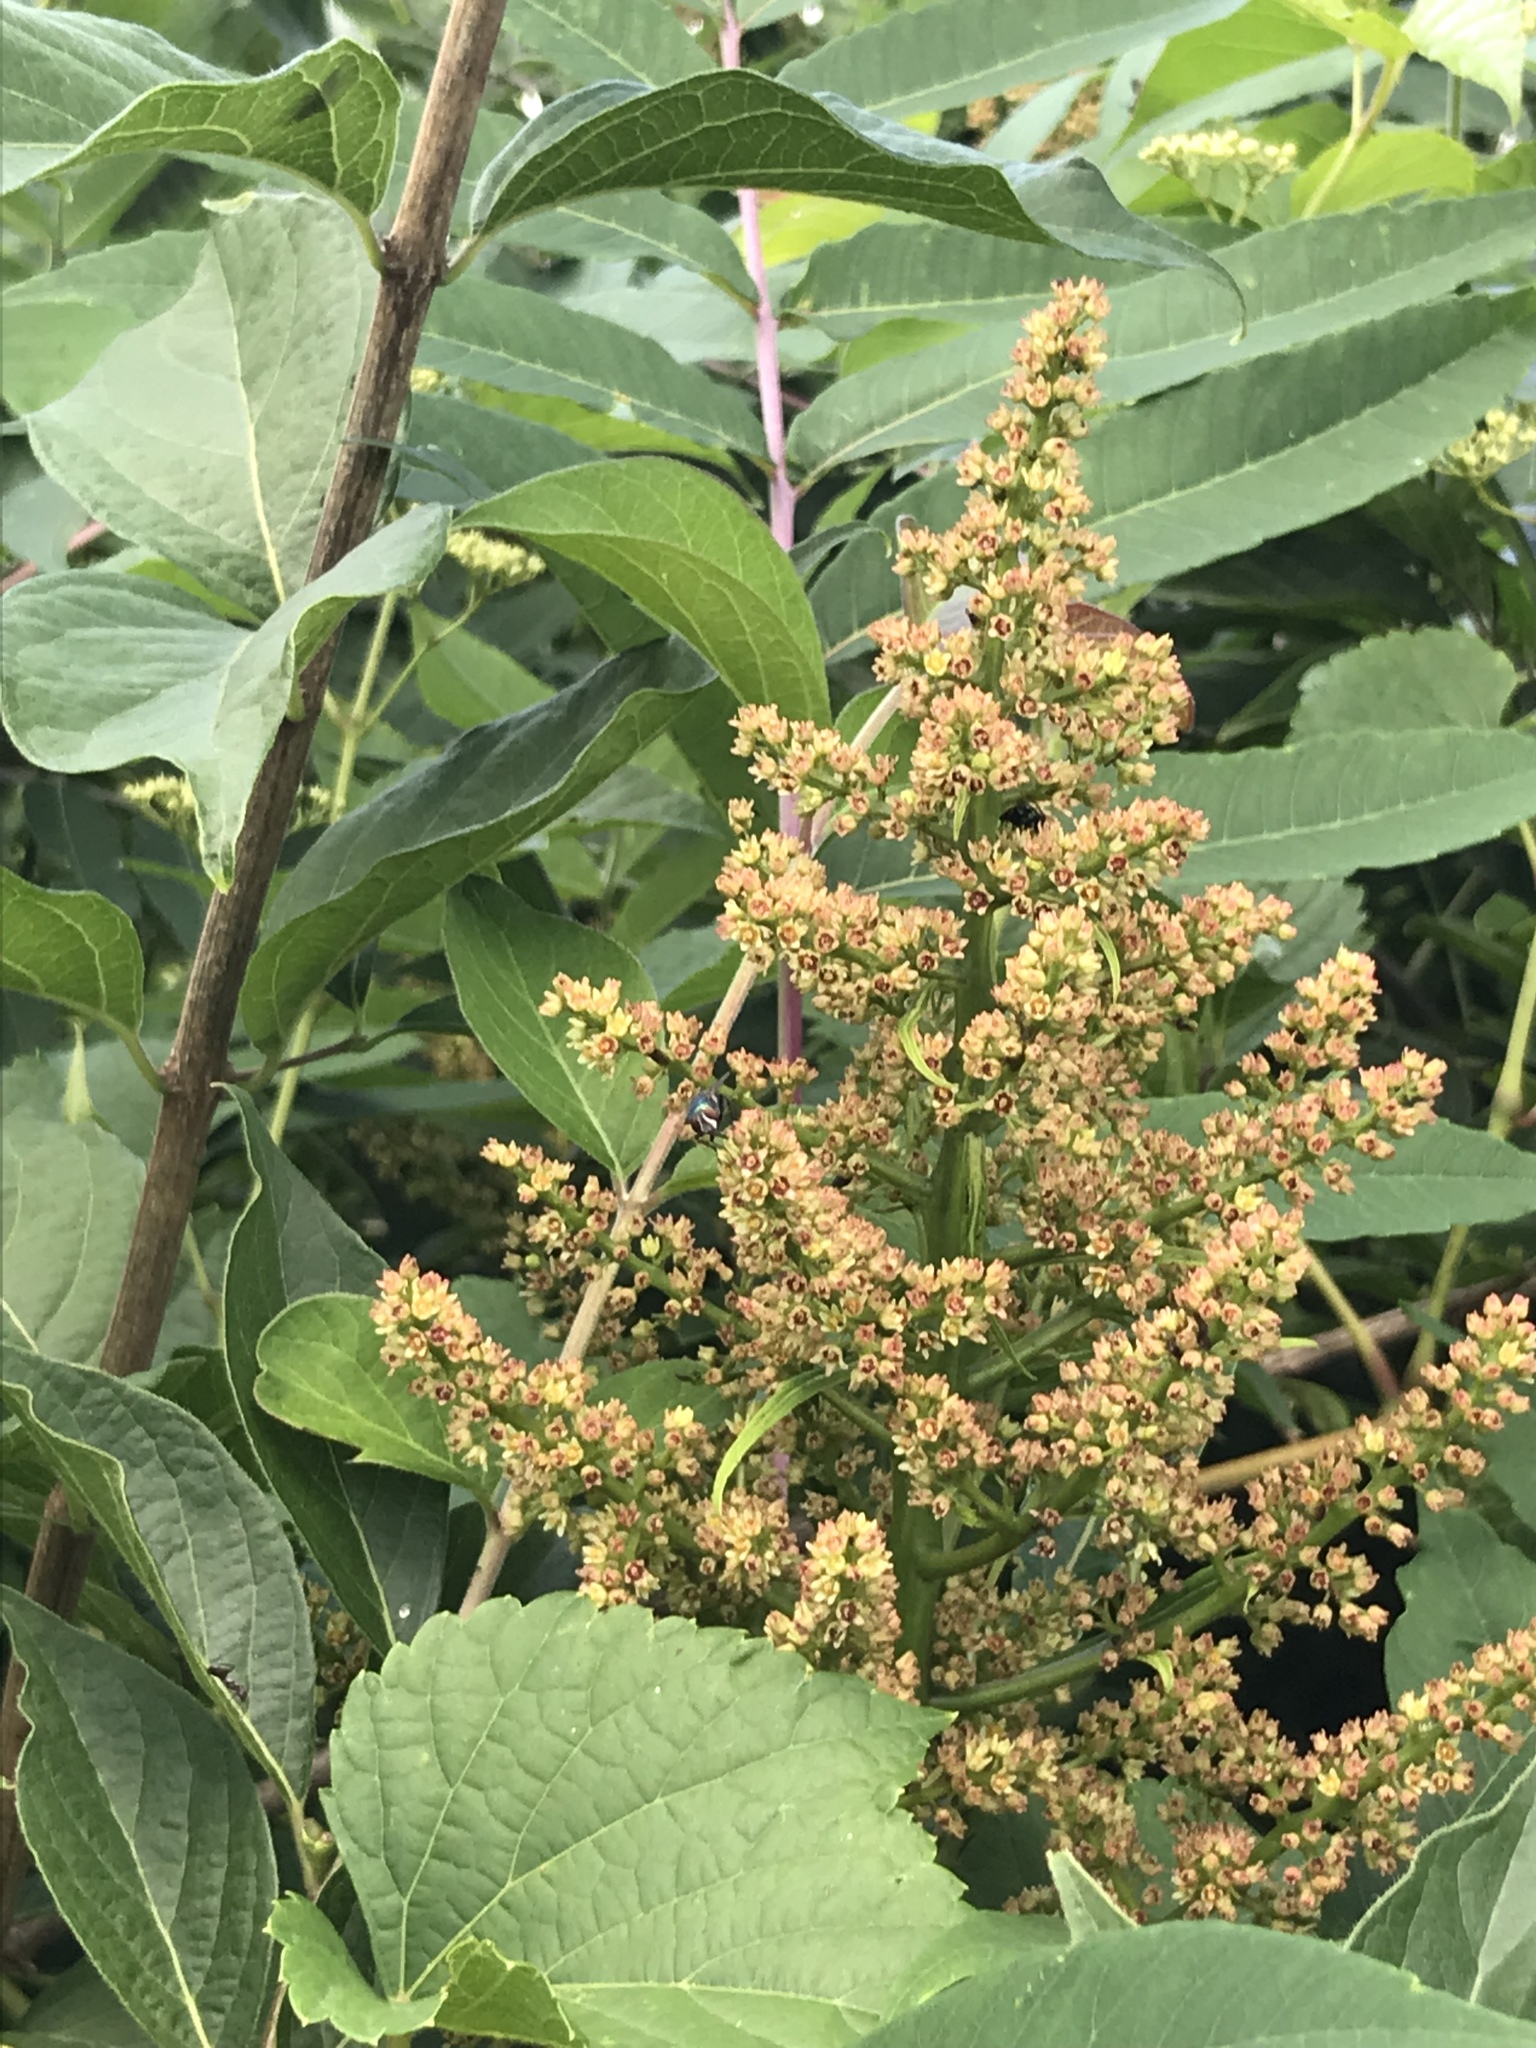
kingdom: Plantae
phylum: Tracheophyta
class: Magnoliopsida
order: Sapindales
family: Anacardiaceae
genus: Rhus
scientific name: Rhus glabra
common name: Scarlet sumac
